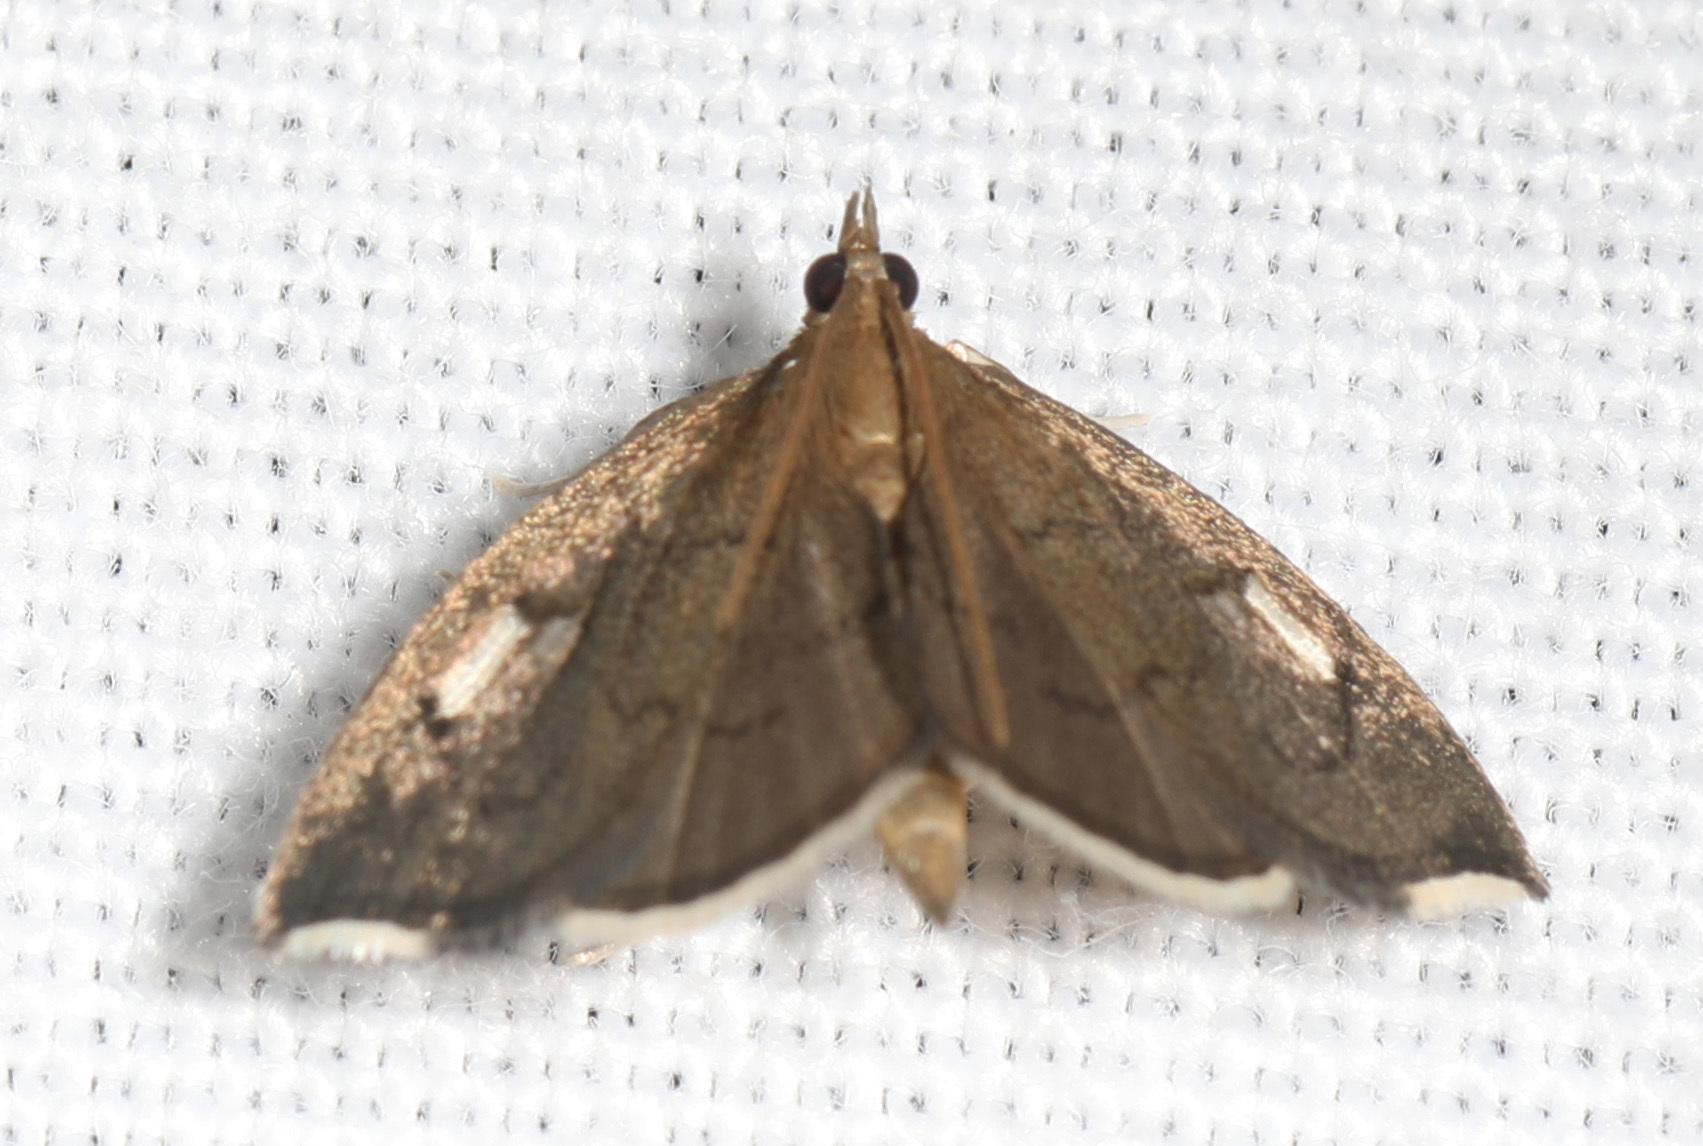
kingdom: Animalia
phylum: Arthropoda
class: Insecta
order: Lepidoptera
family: Crambidae
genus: Perispasta
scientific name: Perispasta caeculalis
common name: Titian peale's moth
